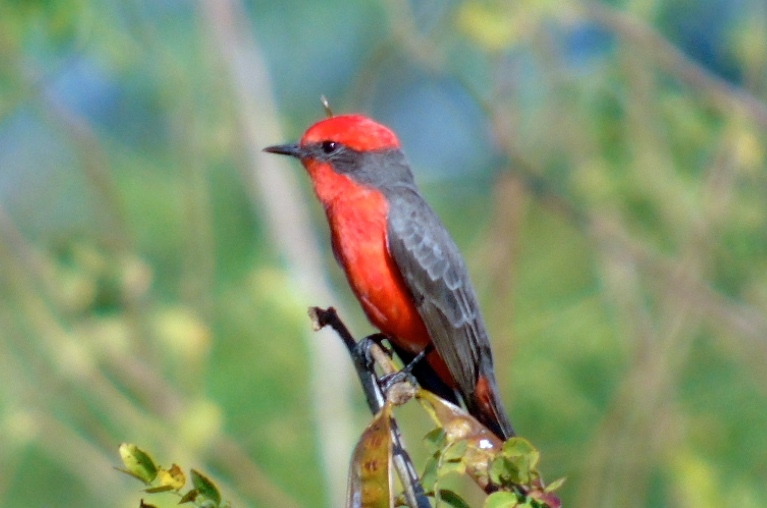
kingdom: Animalia
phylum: Chordata
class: Aves
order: Passeriformes
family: Tyrannidae
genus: Pyrocephalus
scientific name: Pyrocephalus rubinus
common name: Vermilion flycatcher
